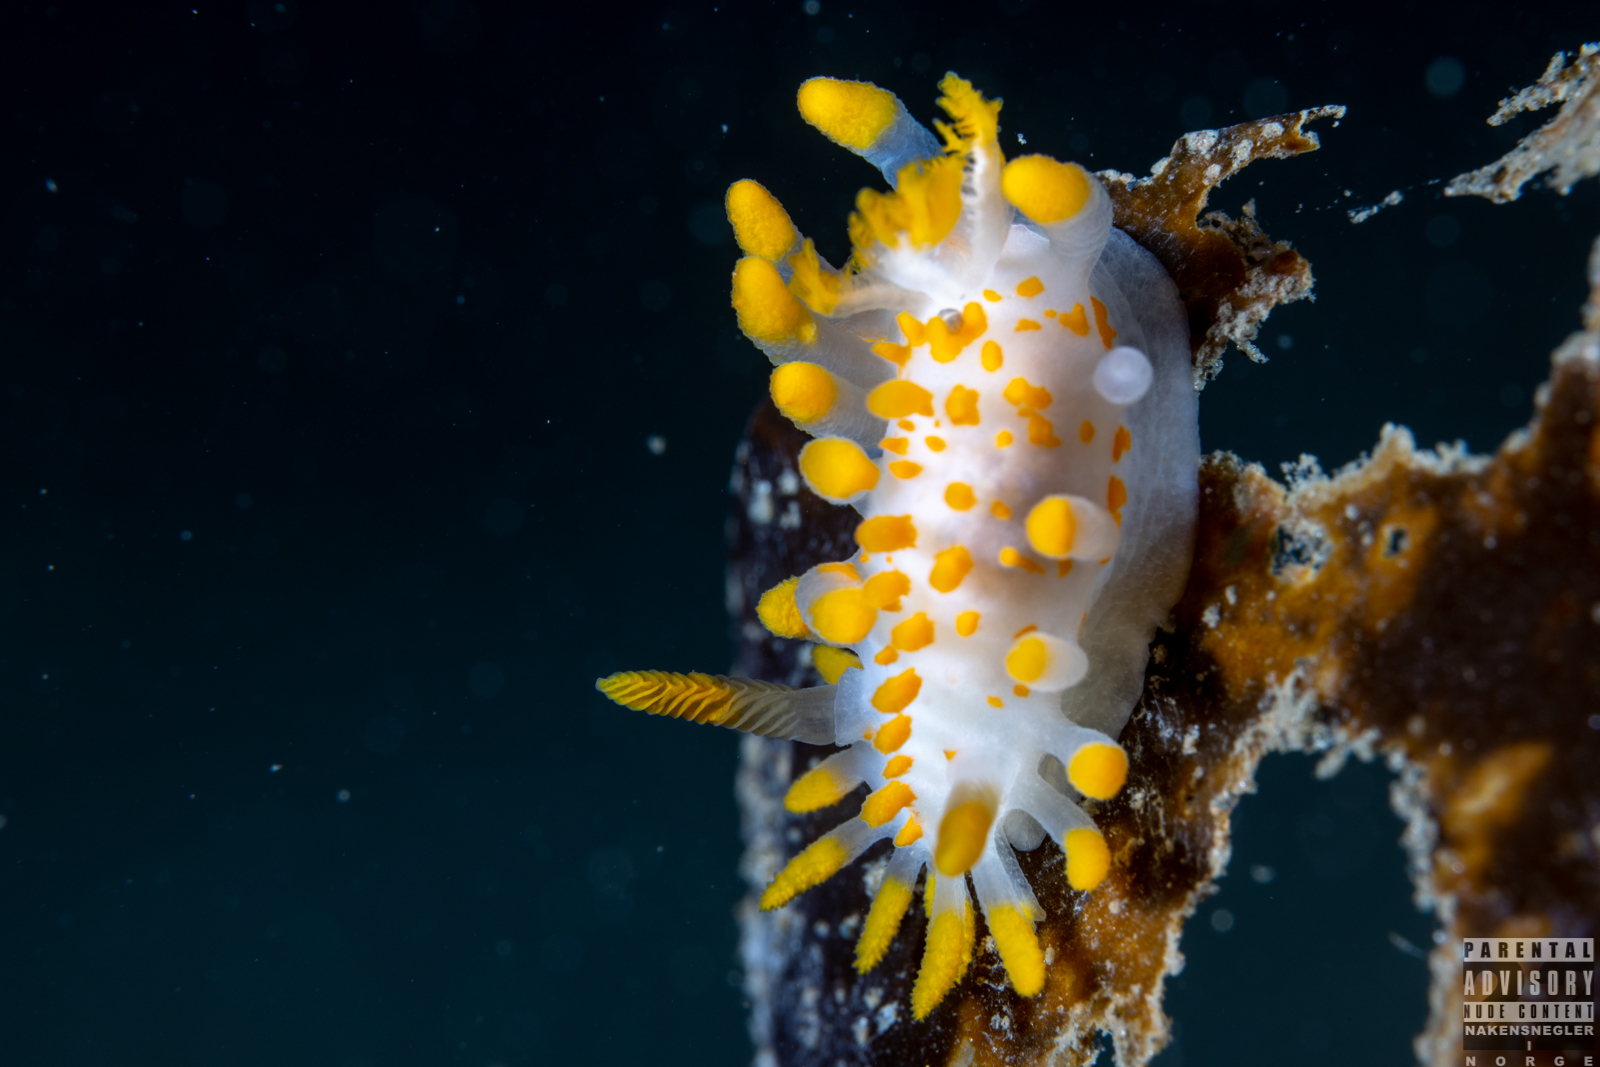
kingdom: Animalia
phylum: Mollusca
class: Gastropoda
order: Nudibranchia
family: Polyceridae
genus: Limacia
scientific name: Limacia clavigera
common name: Orange-clubbed sea slug
